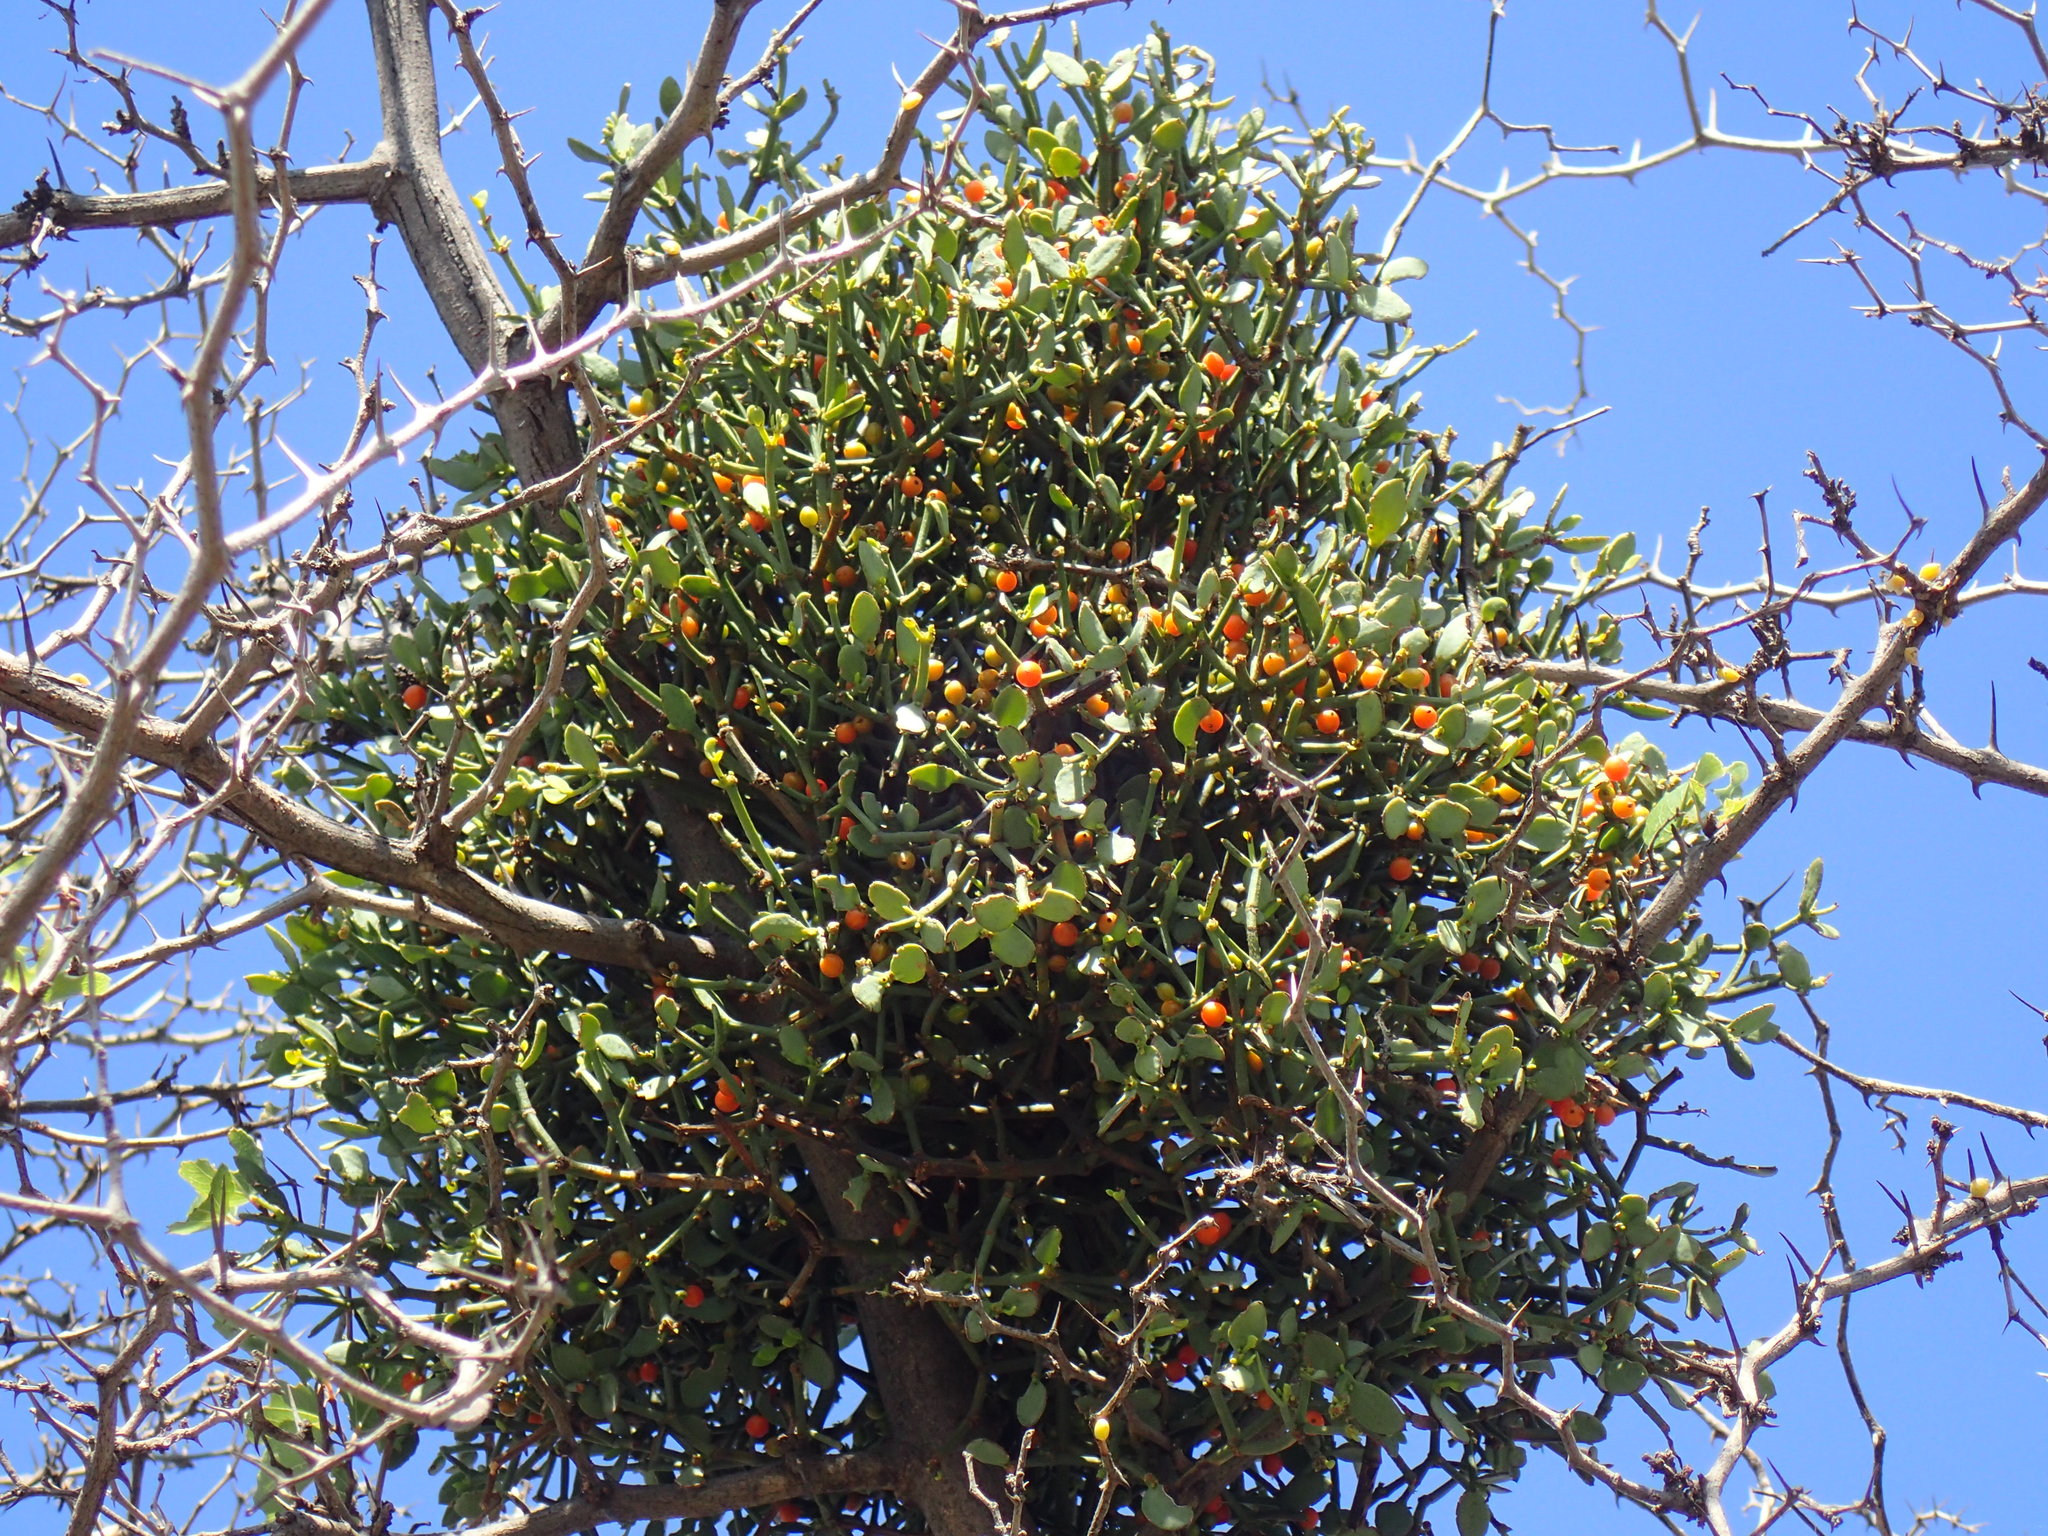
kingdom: Plantae
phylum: Tracheophyta
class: Magnoliopsida
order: Santalales
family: Viscaceae
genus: Viscum
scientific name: Viscum rotundifolium
